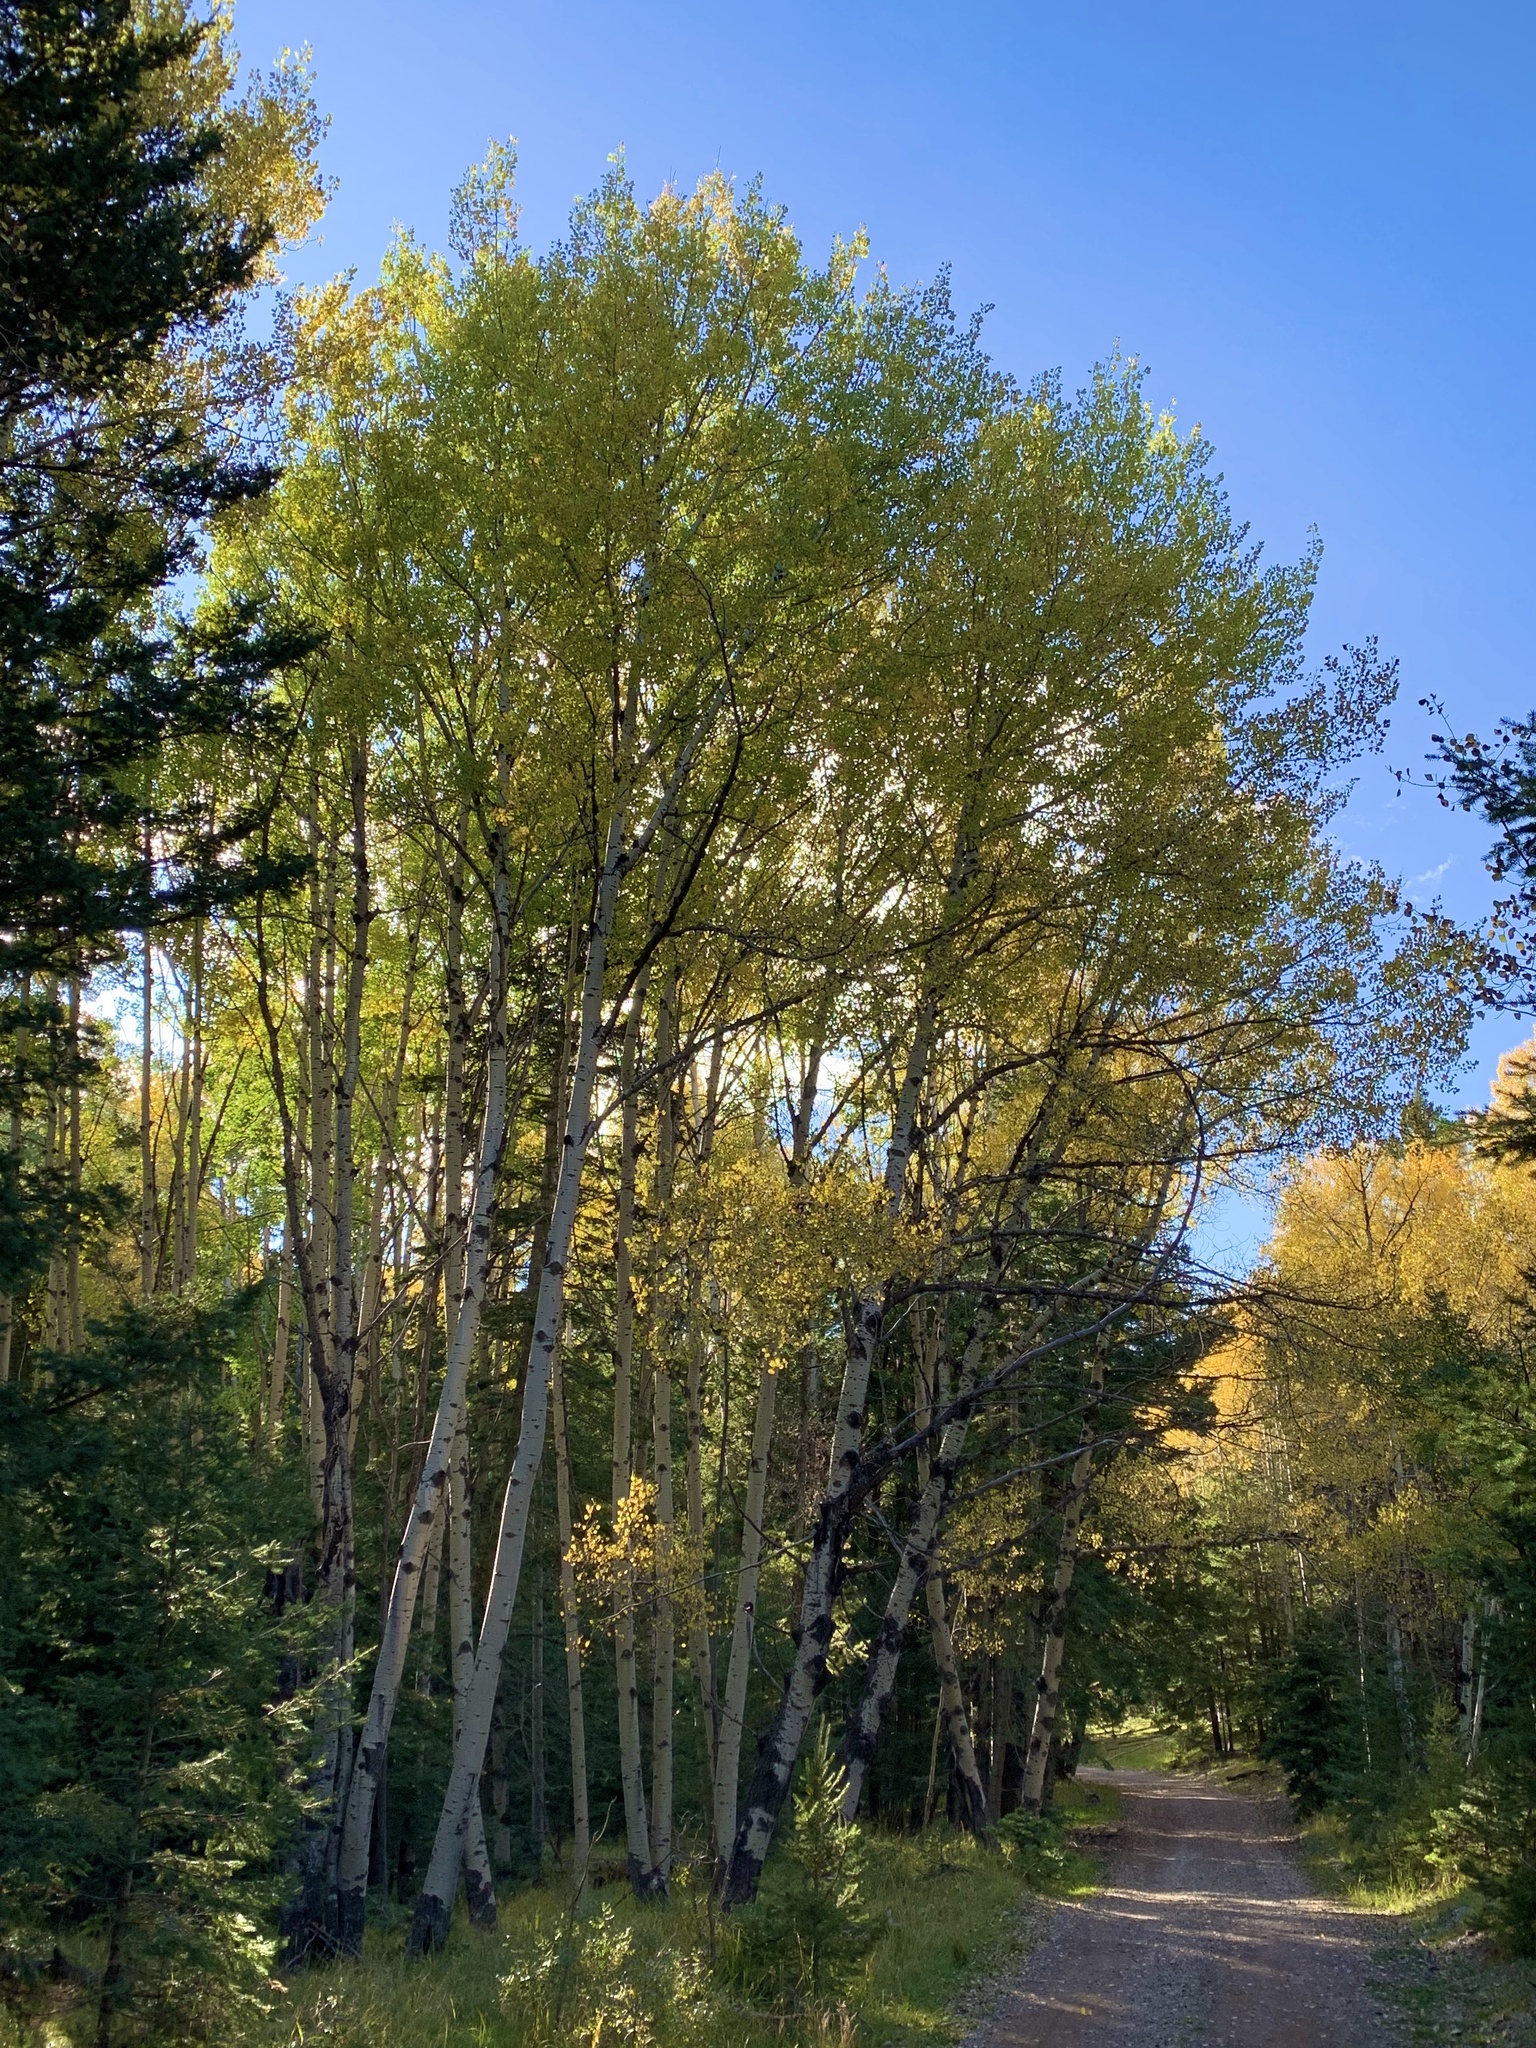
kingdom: Plantae
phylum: Tracheophyta
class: Magnoliopsida
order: Malpighiales
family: Salicaceae
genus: Populus
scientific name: Populus tremuloides
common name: Quaking aspen
